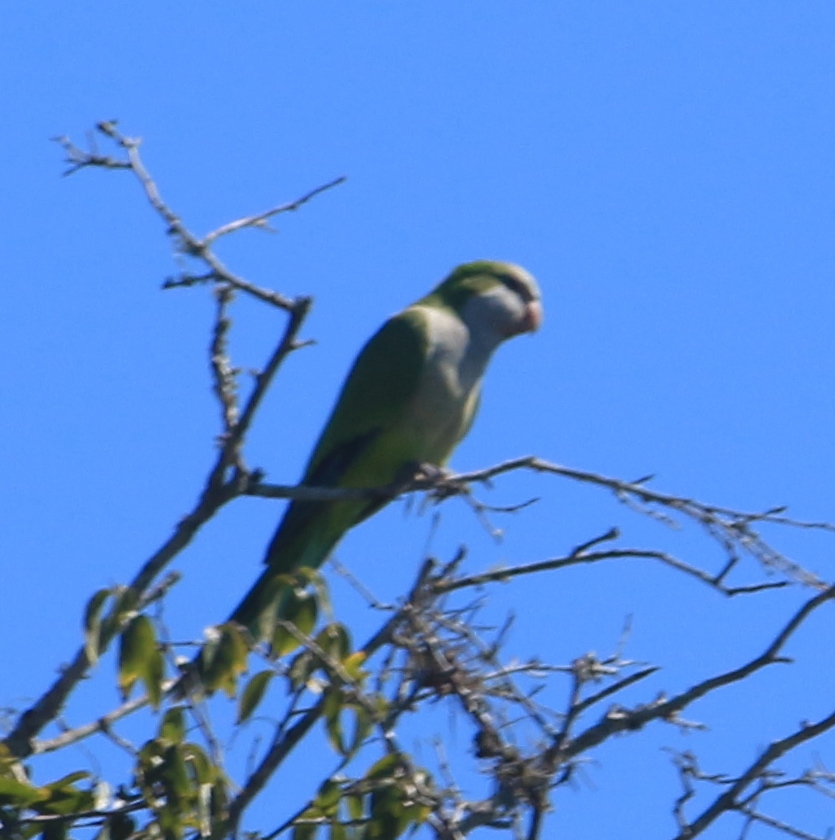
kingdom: Animalia
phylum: Chordata
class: Aves
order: Psittaciformes
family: Psittacidae
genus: Myiopsitta
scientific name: Myiopsitta monachus
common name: Monk parakeet
